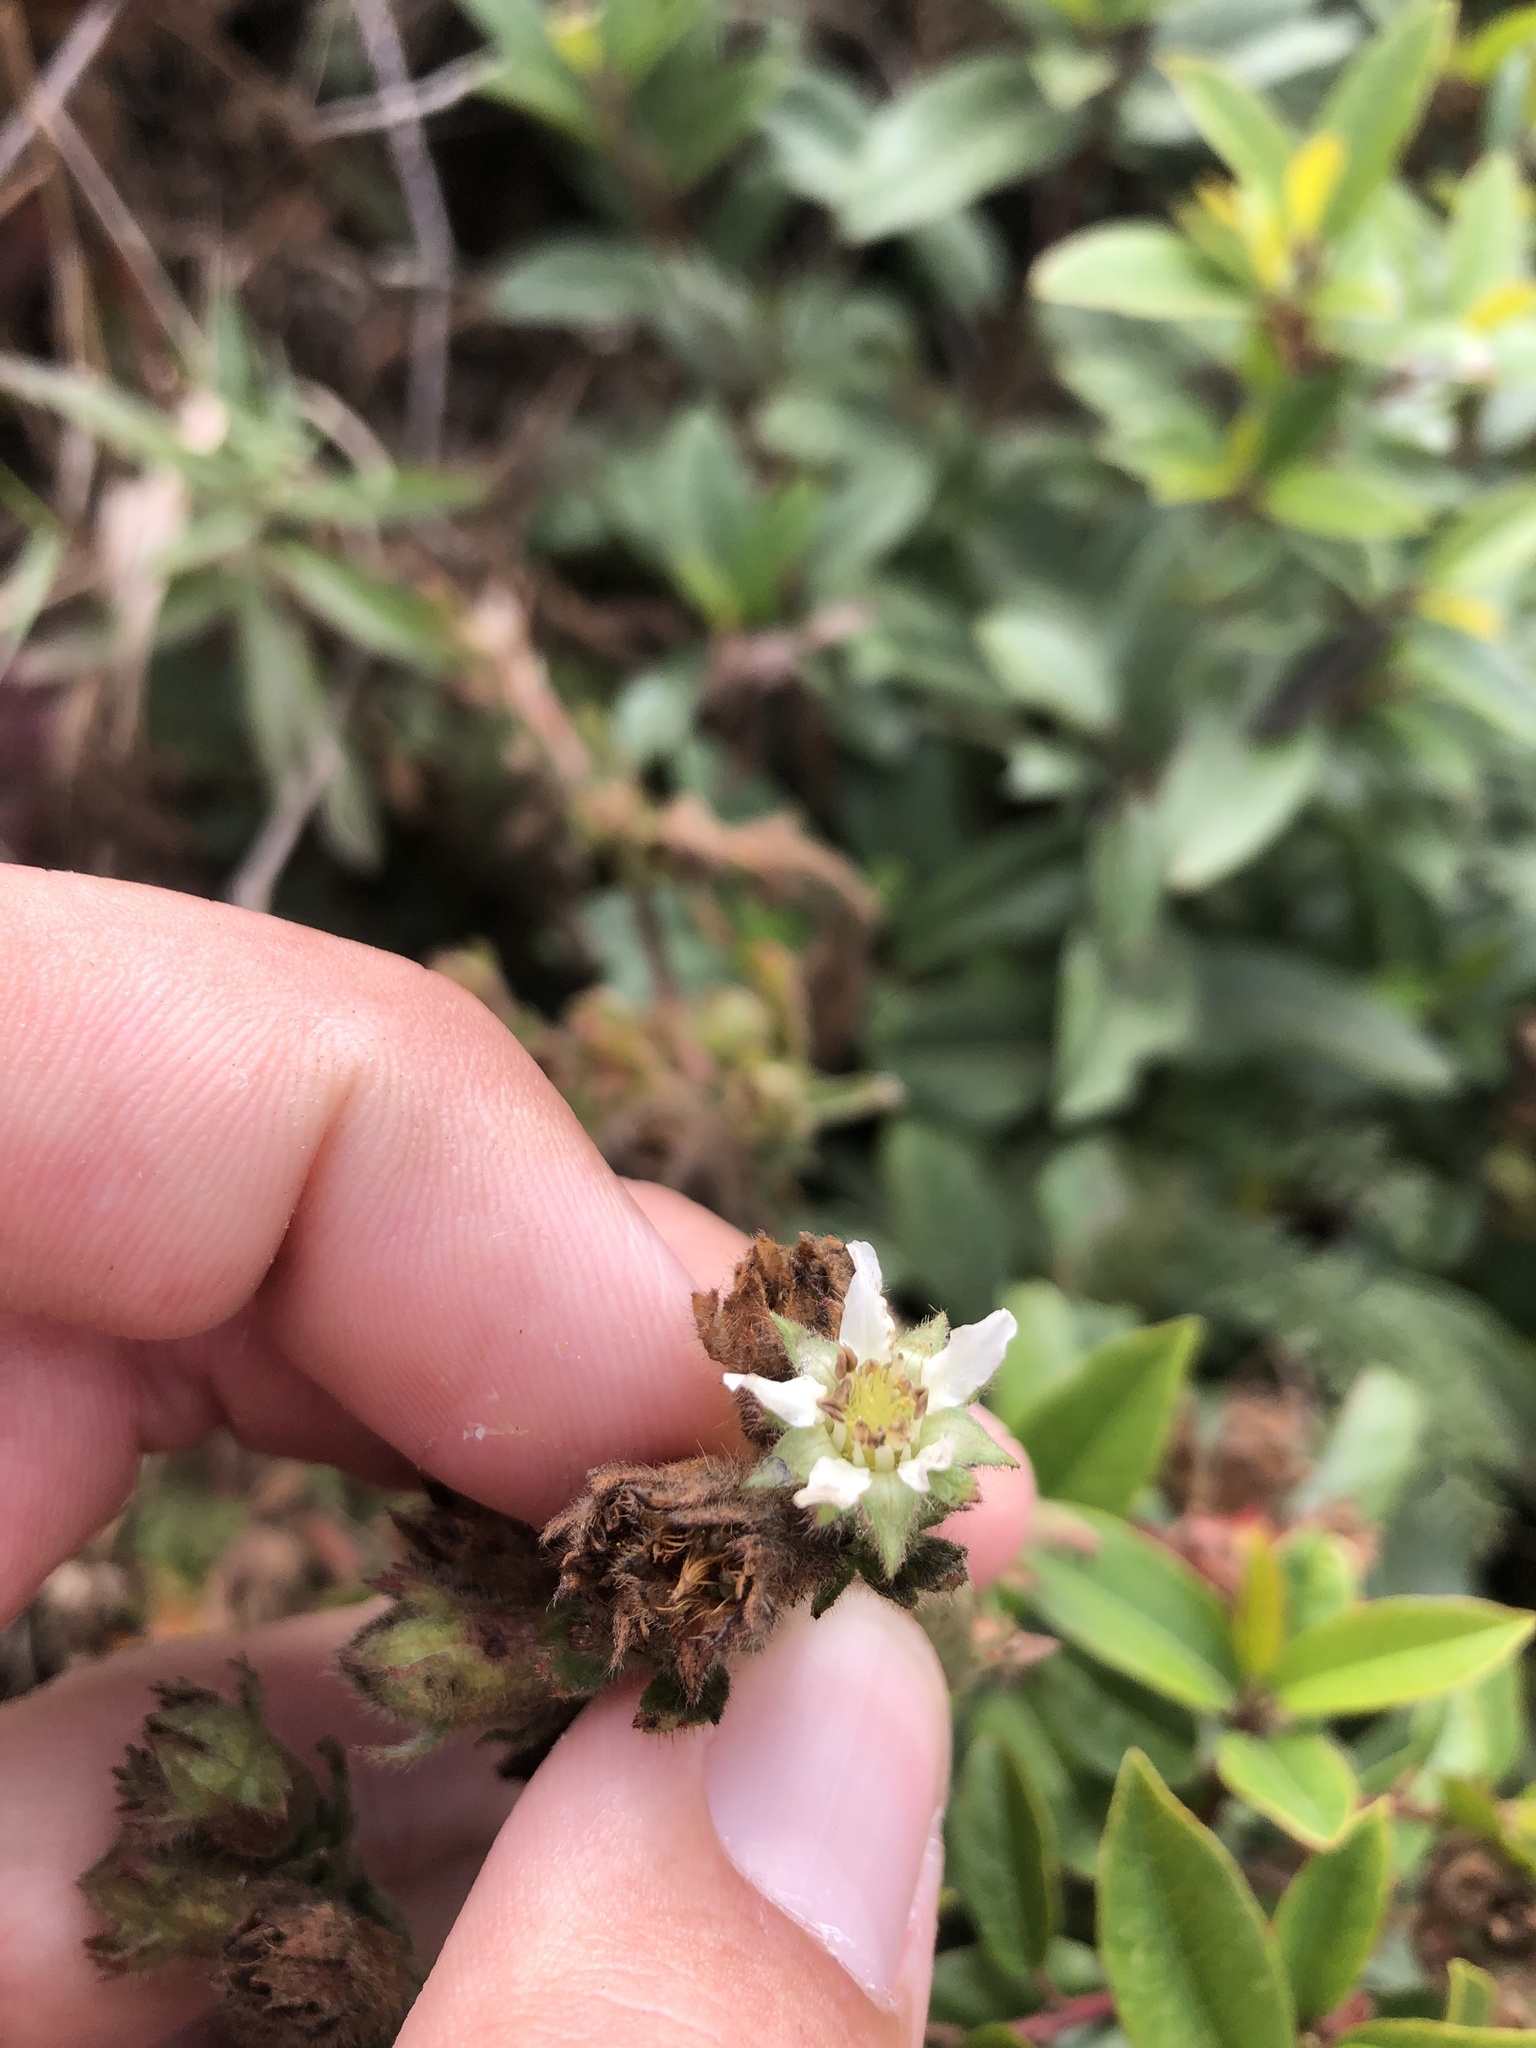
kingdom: Plantae
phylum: Tracheophyta
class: Magnoliopsida
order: Rosales
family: Rosaceae
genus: Potentilla
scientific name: Potentilla californica
